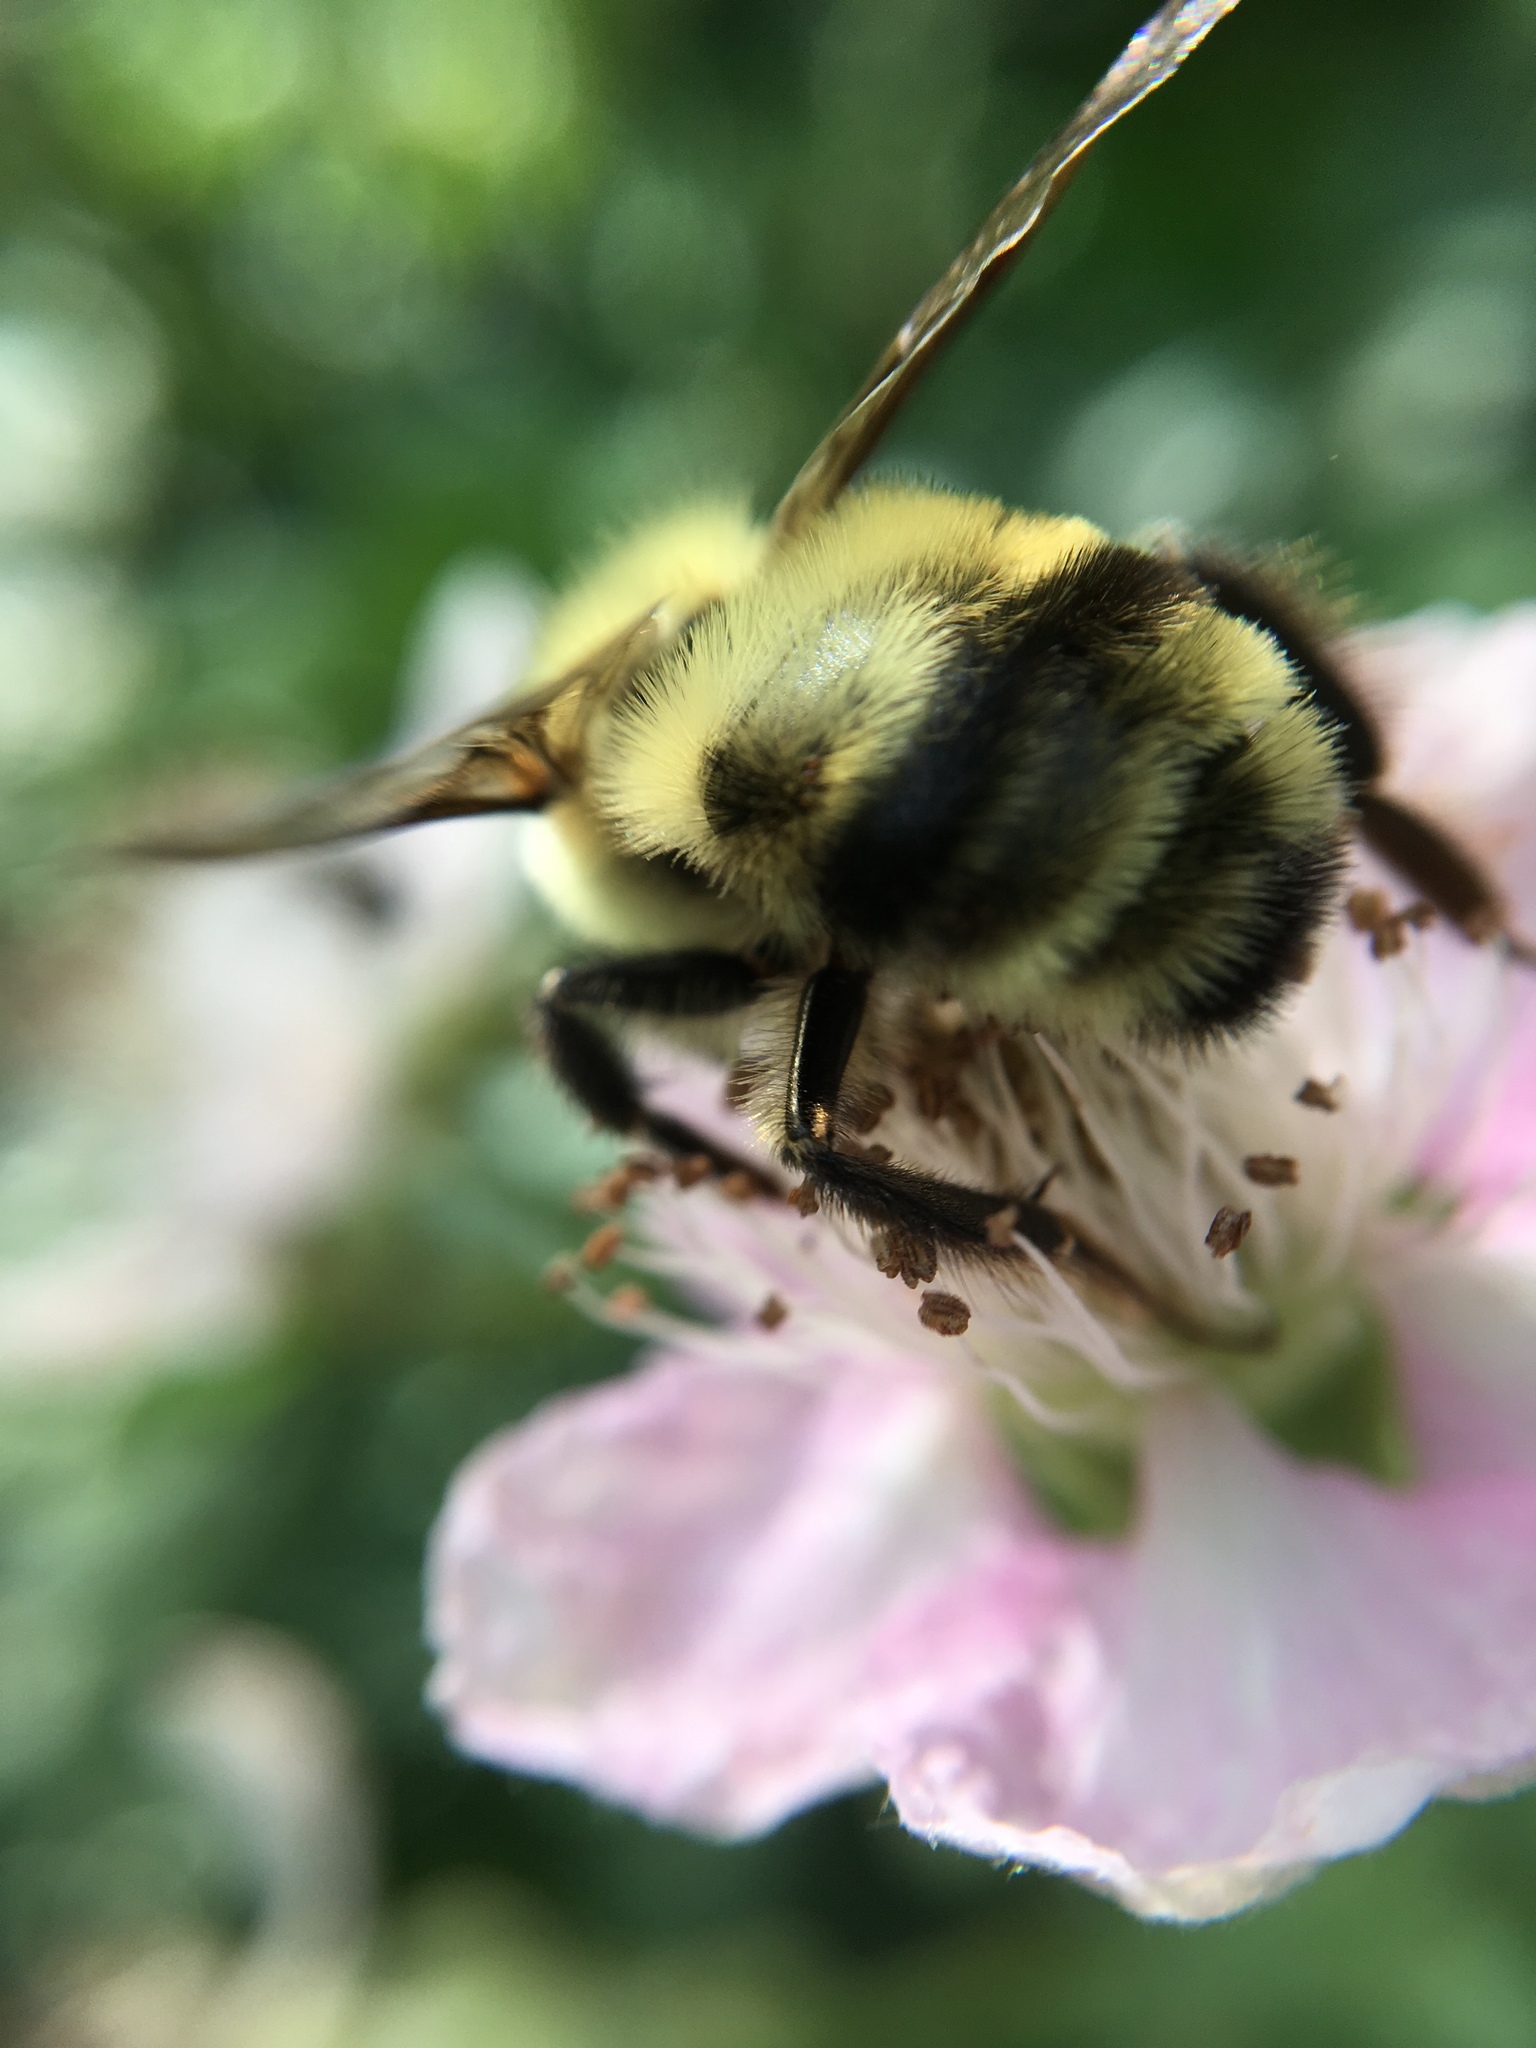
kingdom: Animalia
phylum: Arthropoda
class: Insecta
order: Hymenoptera
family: Apidae
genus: Bombus
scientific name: Bombus bimaculatus
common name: Two-spotted bumble bee
